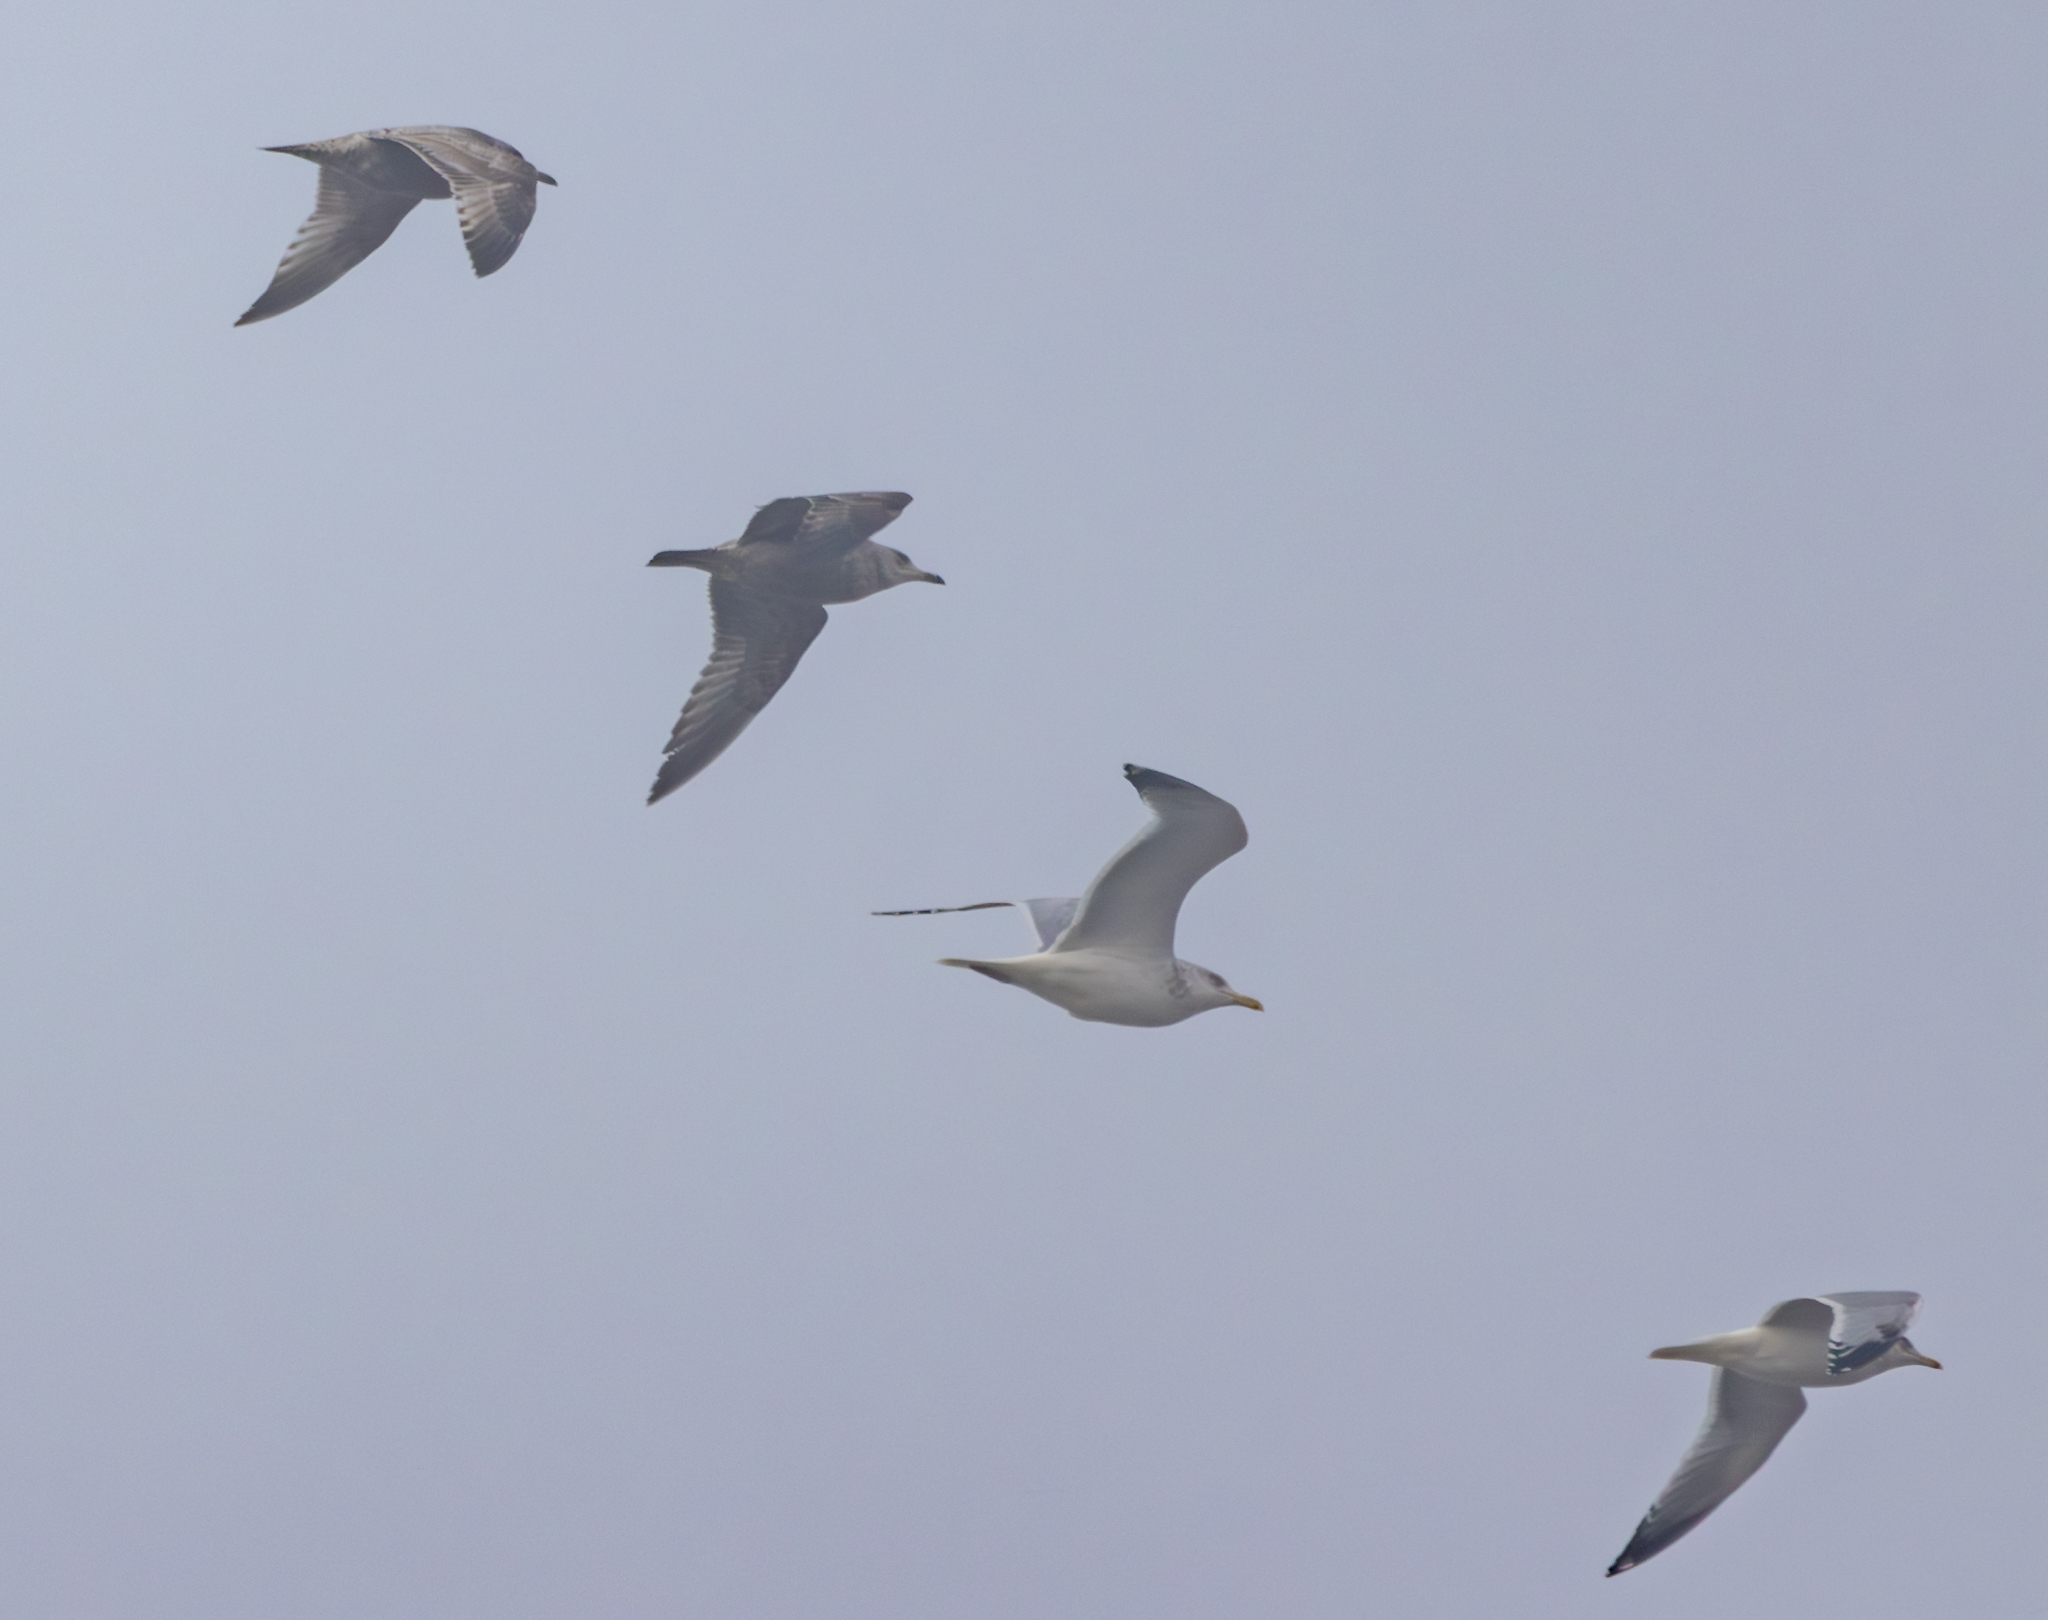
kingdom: Animalia
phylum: Chordata
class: Aves
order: Charadriiformes
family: Laridae
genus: Larus
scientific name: Larus argentatus
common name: Herring gull
